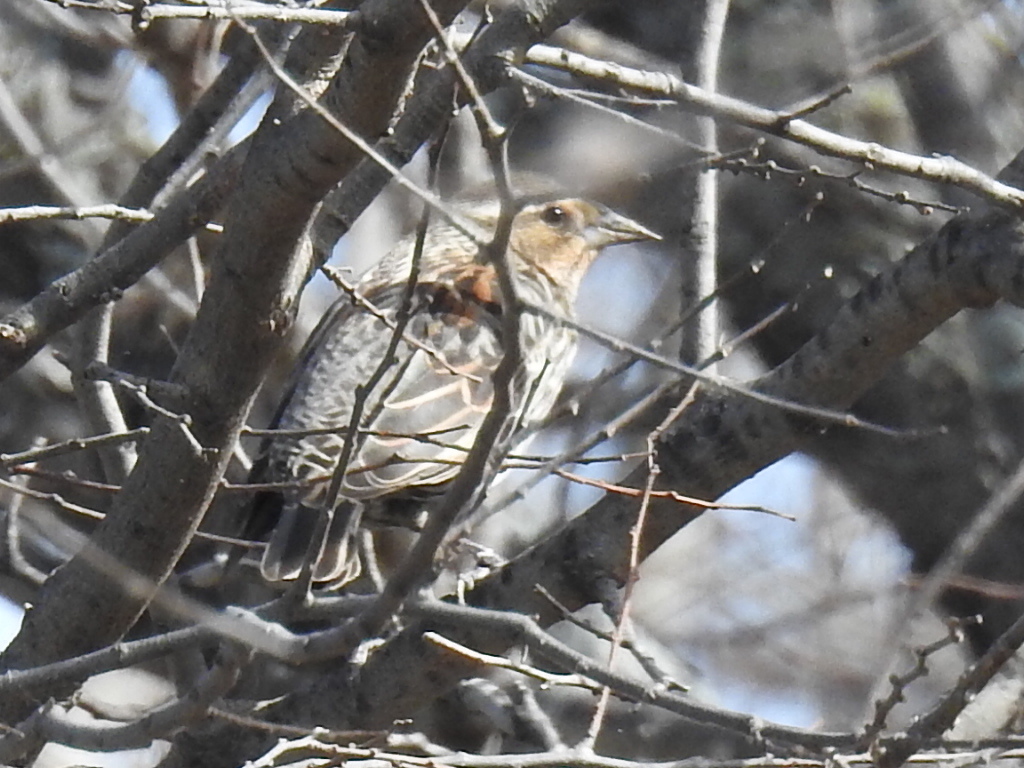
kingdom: Animalia
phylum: Chordata
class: Aves
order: Passeriformes
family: Icteridae
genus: Agelaius
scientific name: Agelaius phoeniceus
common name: Red-winged blackbird
